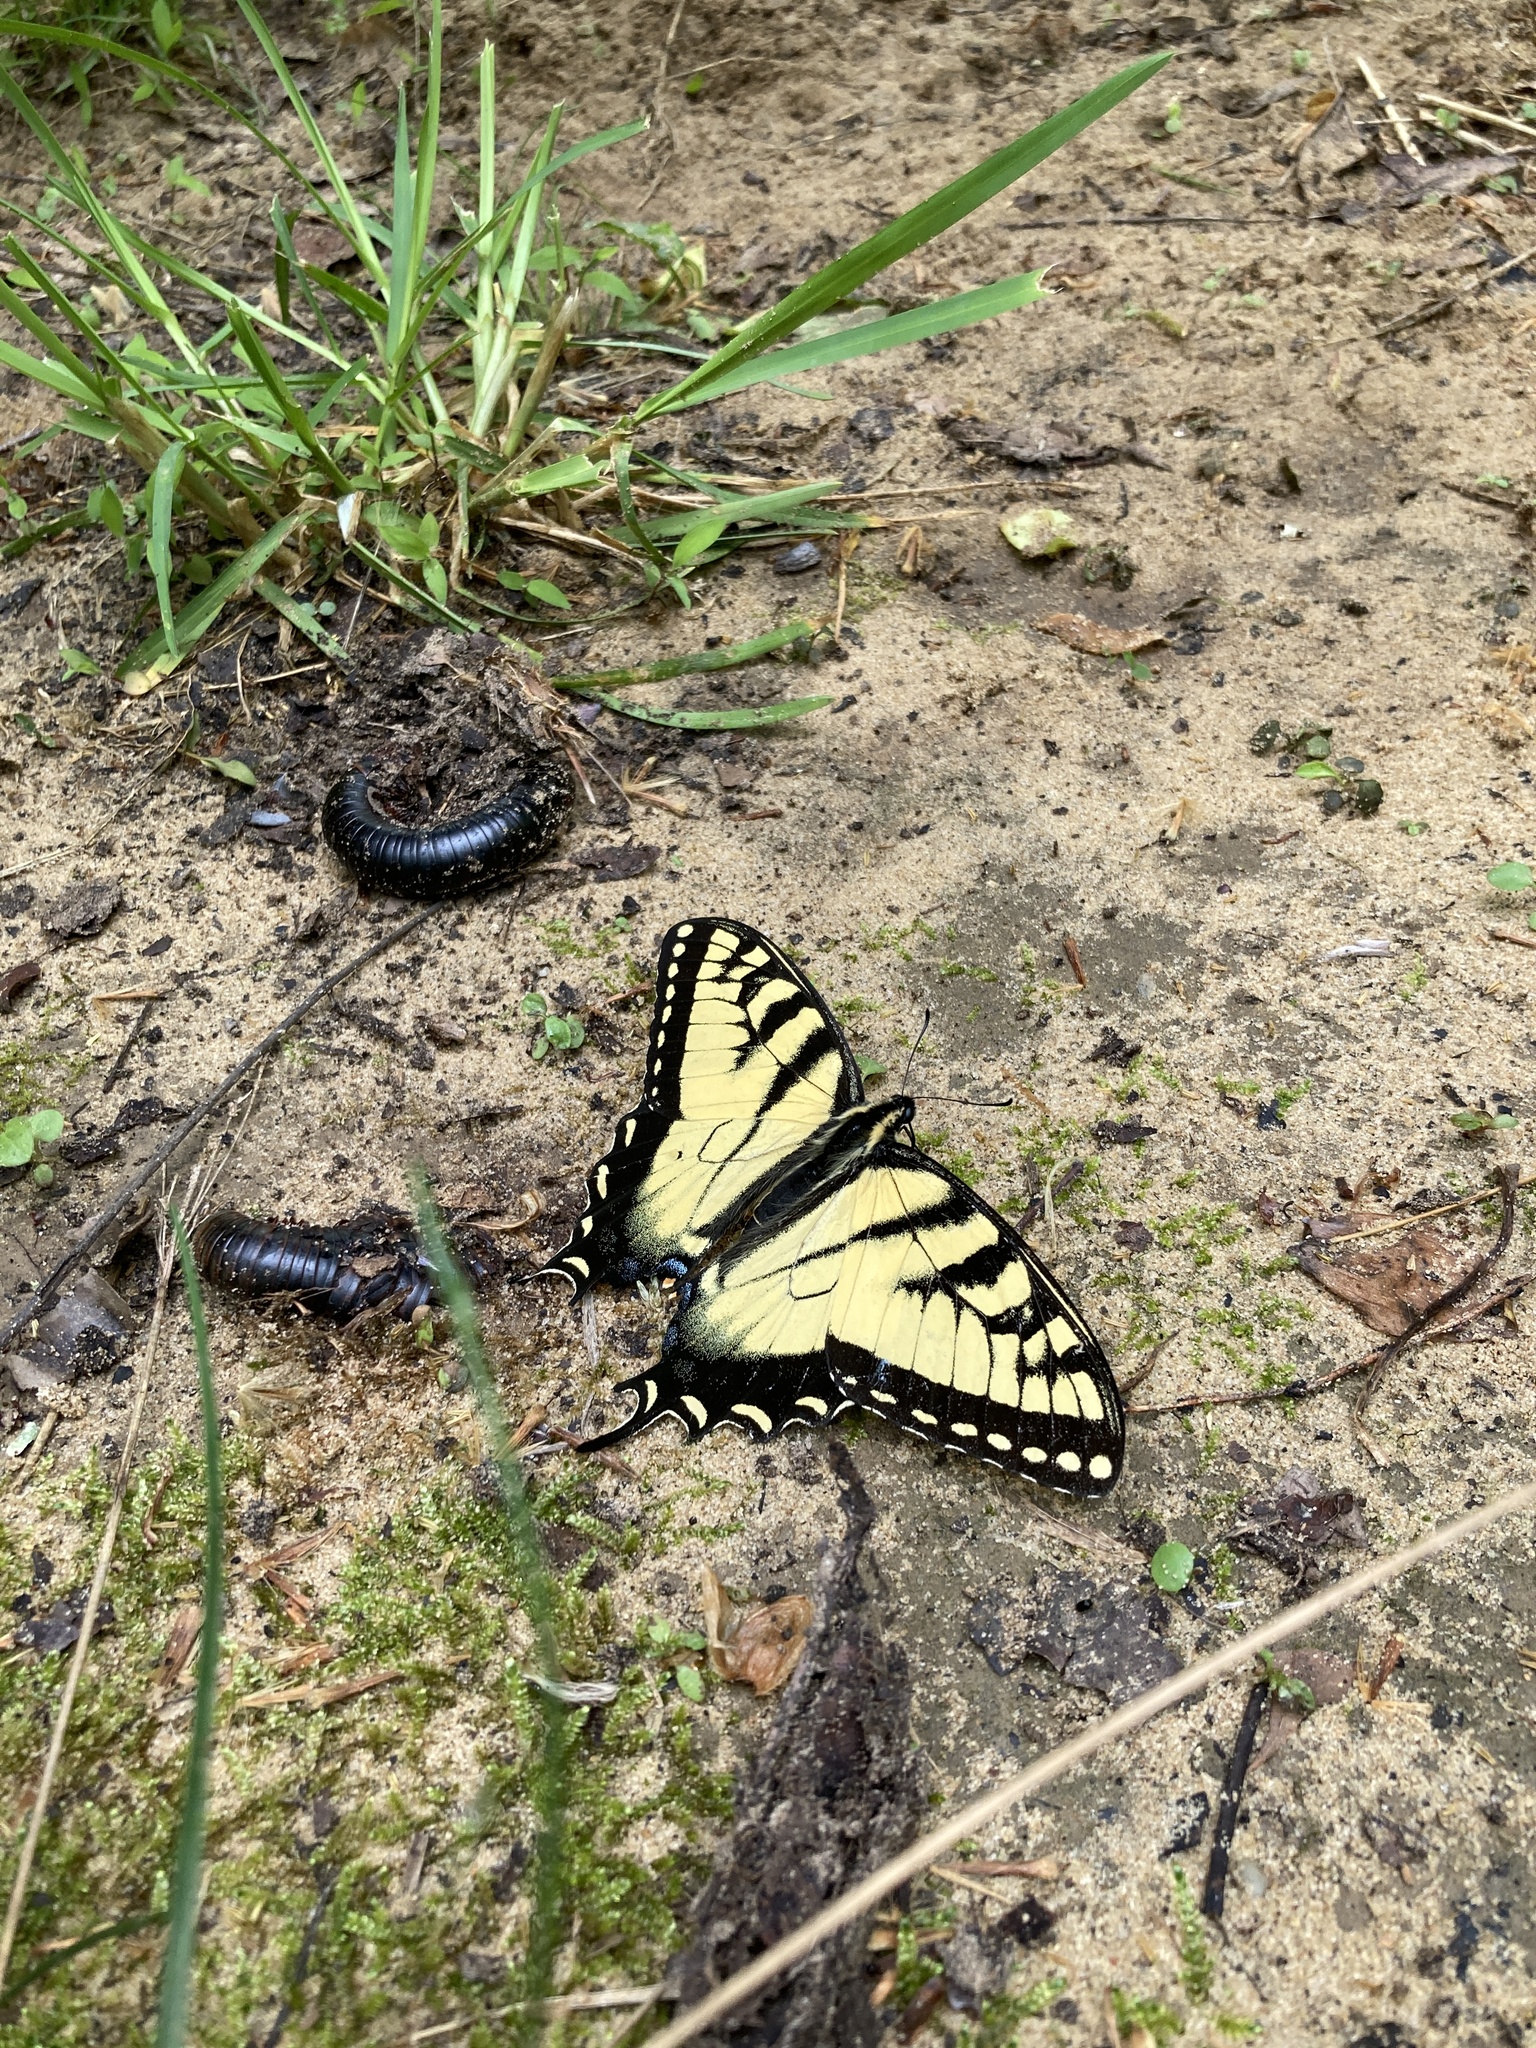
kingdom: Animalia
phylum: Arthropoda
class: Insecta
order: Lepidoptera
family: Papilionidae
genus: Papilio
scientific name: Papilio glaucus
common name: Tiger swallowtail
